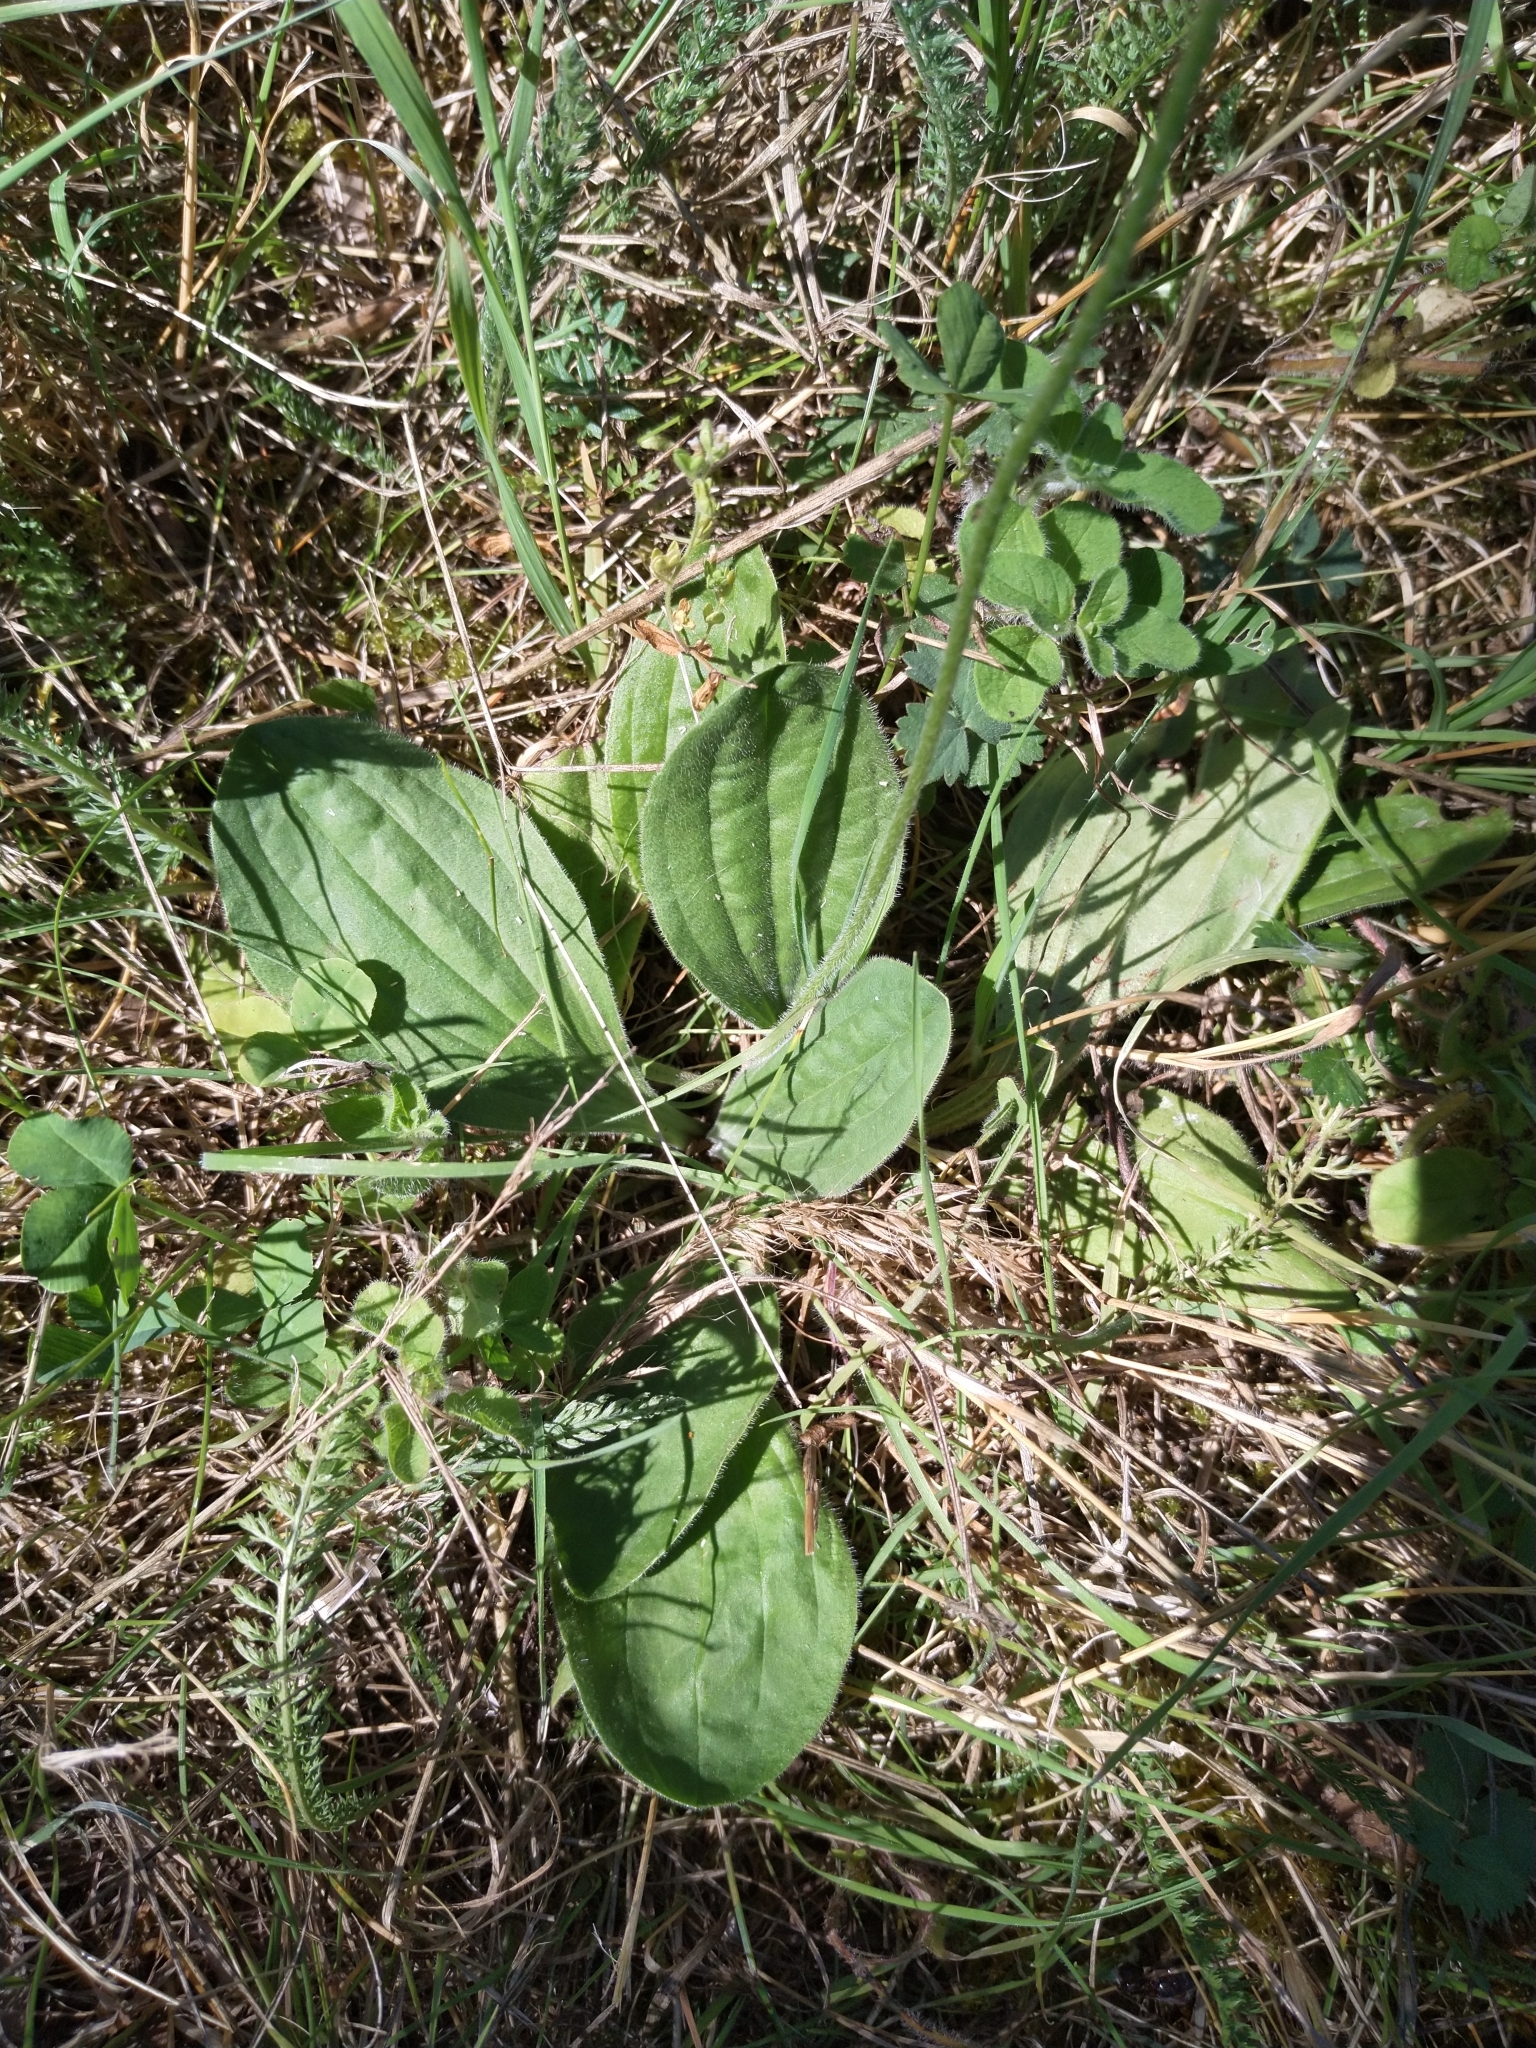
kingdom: Plantae
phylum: Tracheophyta
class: Magnoliopsida
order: Lamiales
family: Plantaginaceae
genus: Plantago
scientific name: Plantago media
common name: Hoary plantain
